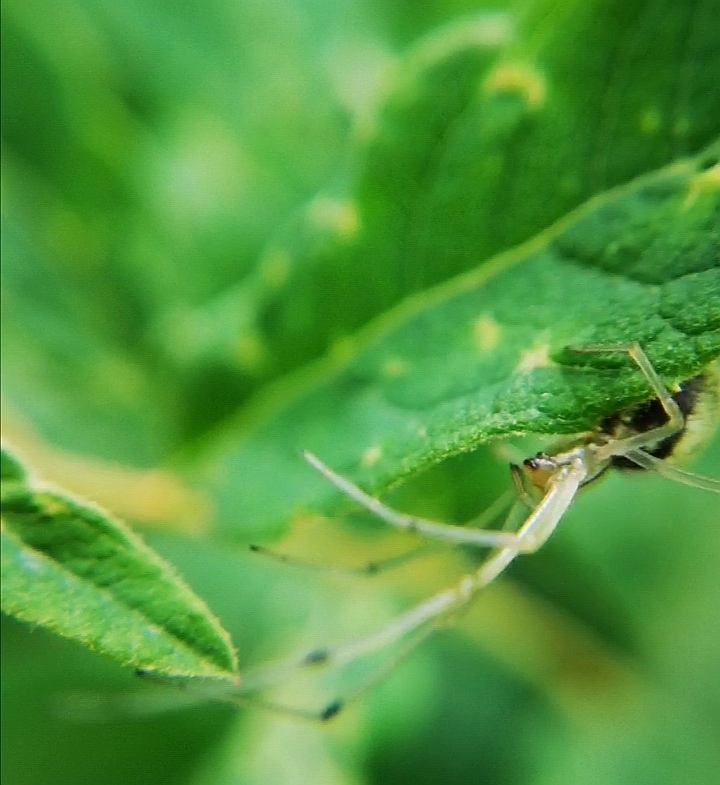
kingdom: Animalia
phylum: Arthropoda
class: Arachnida
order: Araneae
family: Theridiidae
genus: Enoplognatha
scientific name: Enoplognatha ovata
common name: Common candy-striped spider
